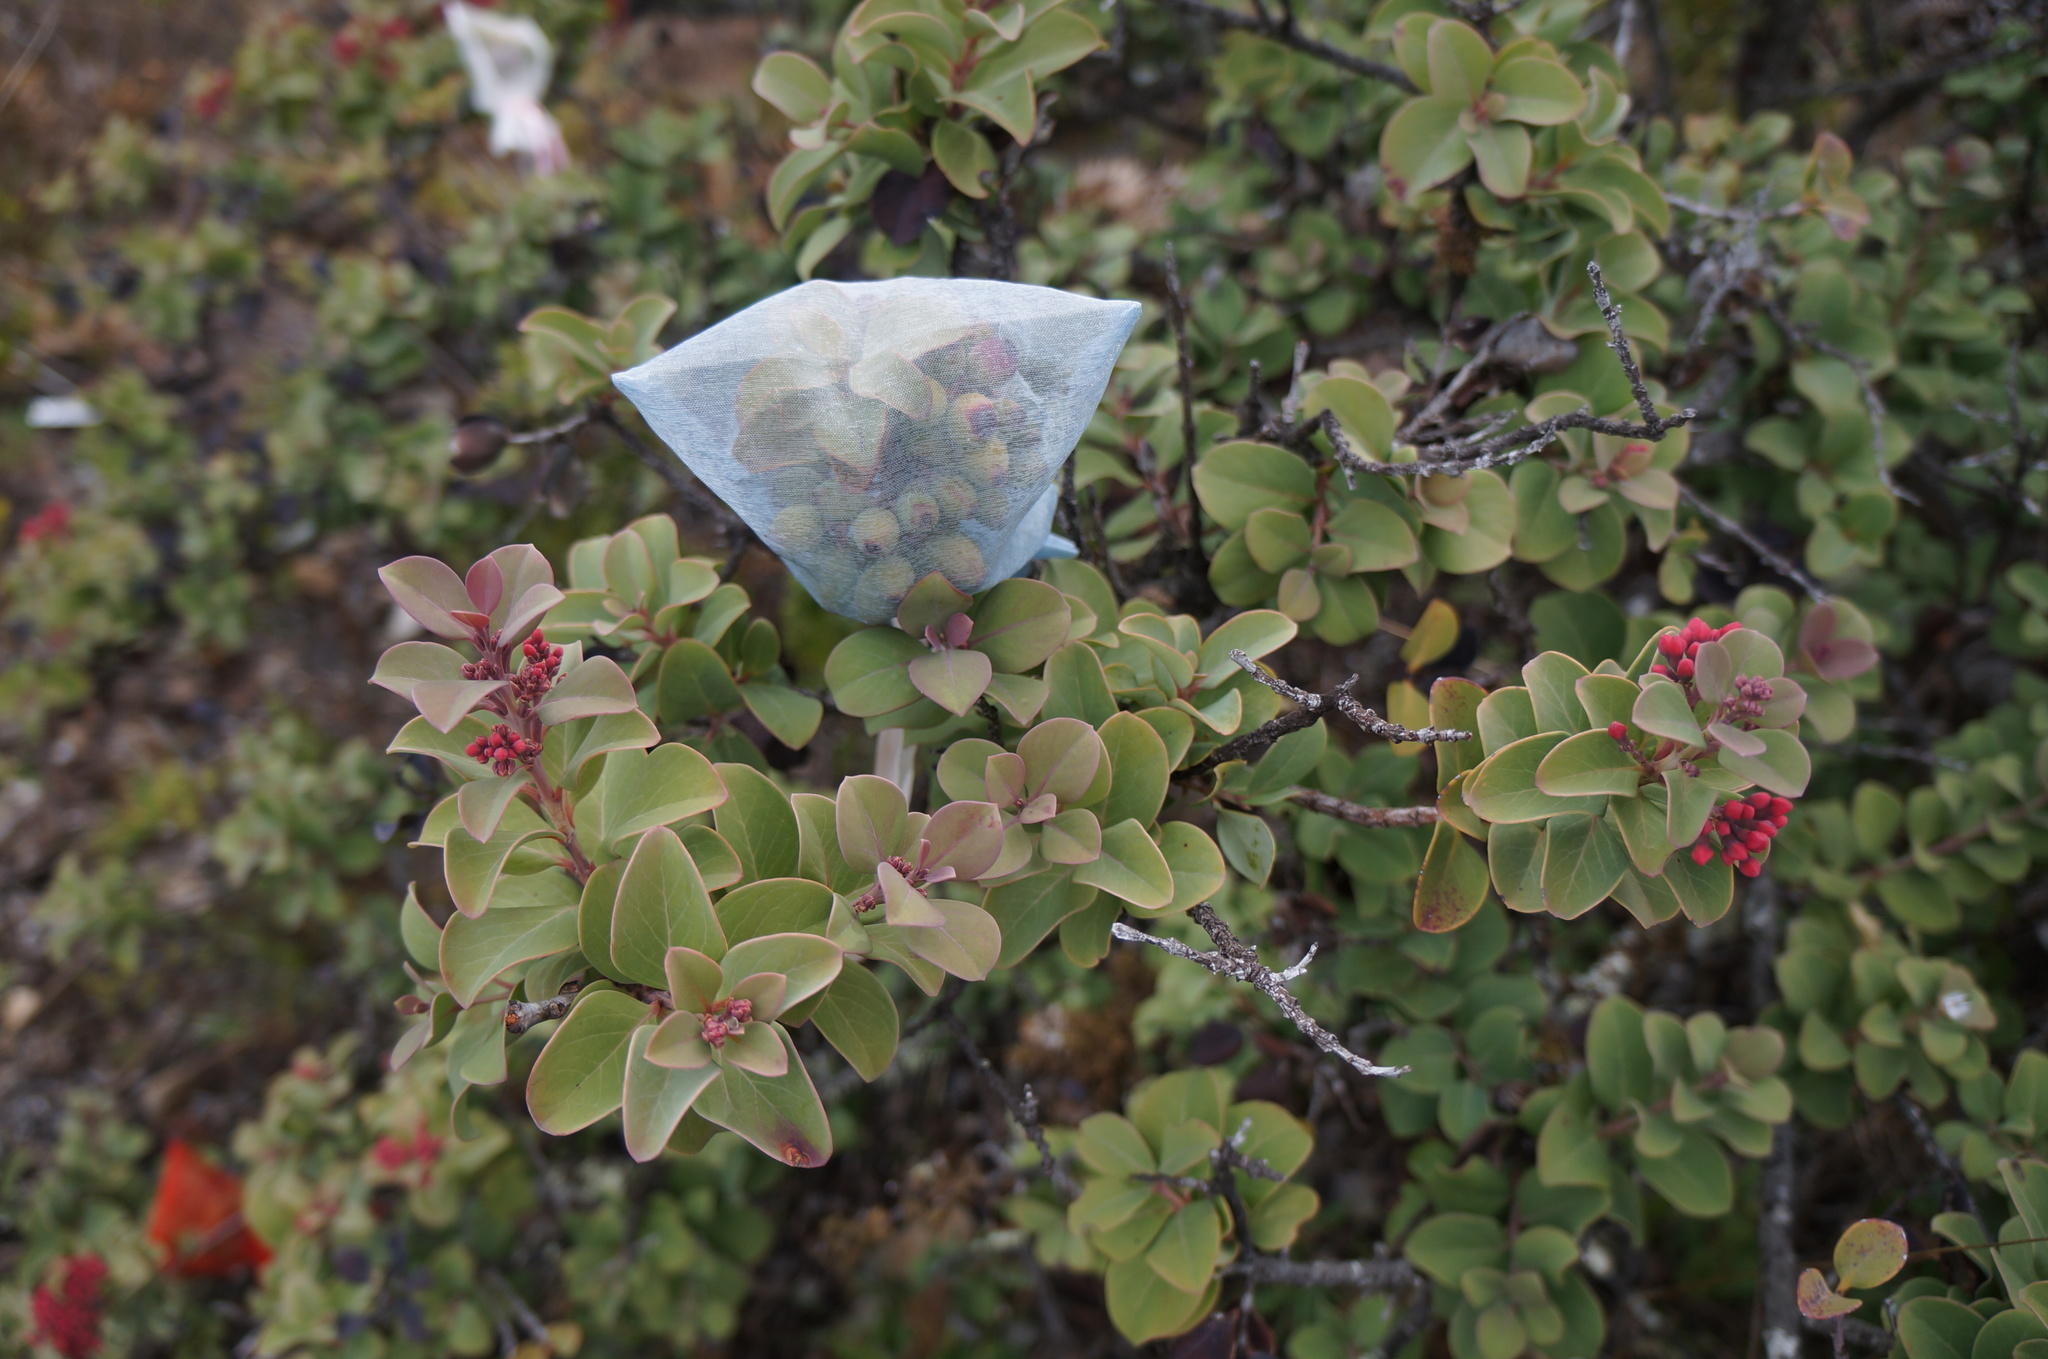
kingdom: Plantae
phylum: Tracheophyta
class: Magnoliopsida
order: Santalales
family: Santalaceae
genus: Santalum
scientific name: Santalum haleakalae
